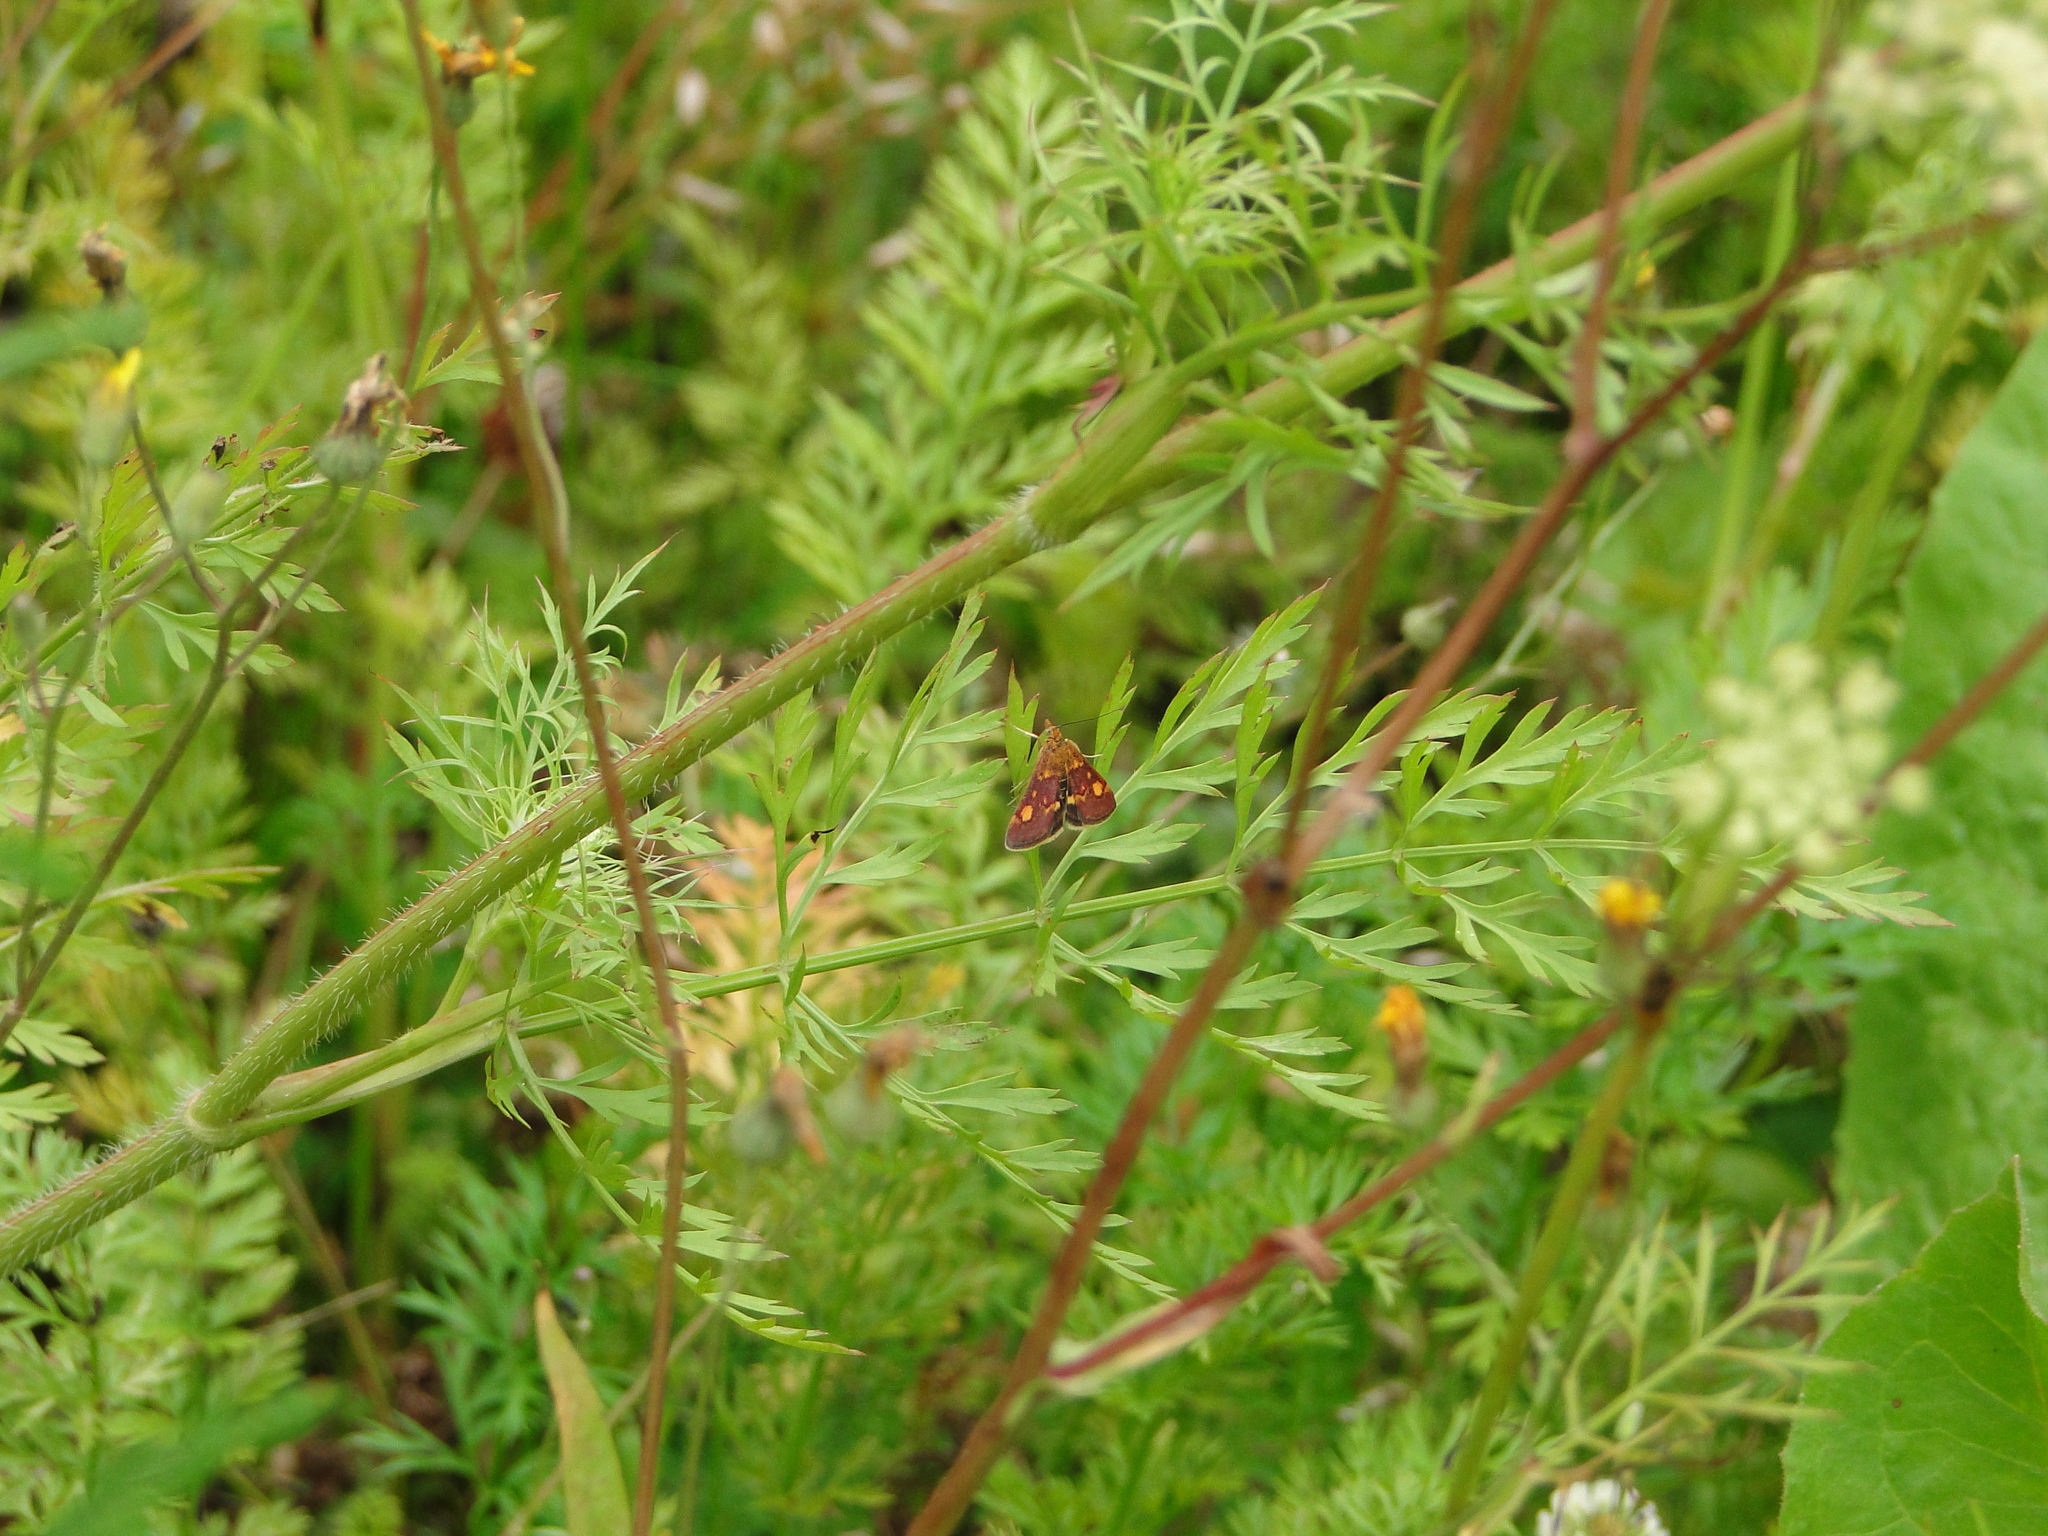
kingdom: Animalia
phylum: Arthropoda
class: Insecta
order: Lepidoptera
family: Crambidae
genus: Pyrausta
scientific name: Pyrausta aurata
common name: Small purple & gold
